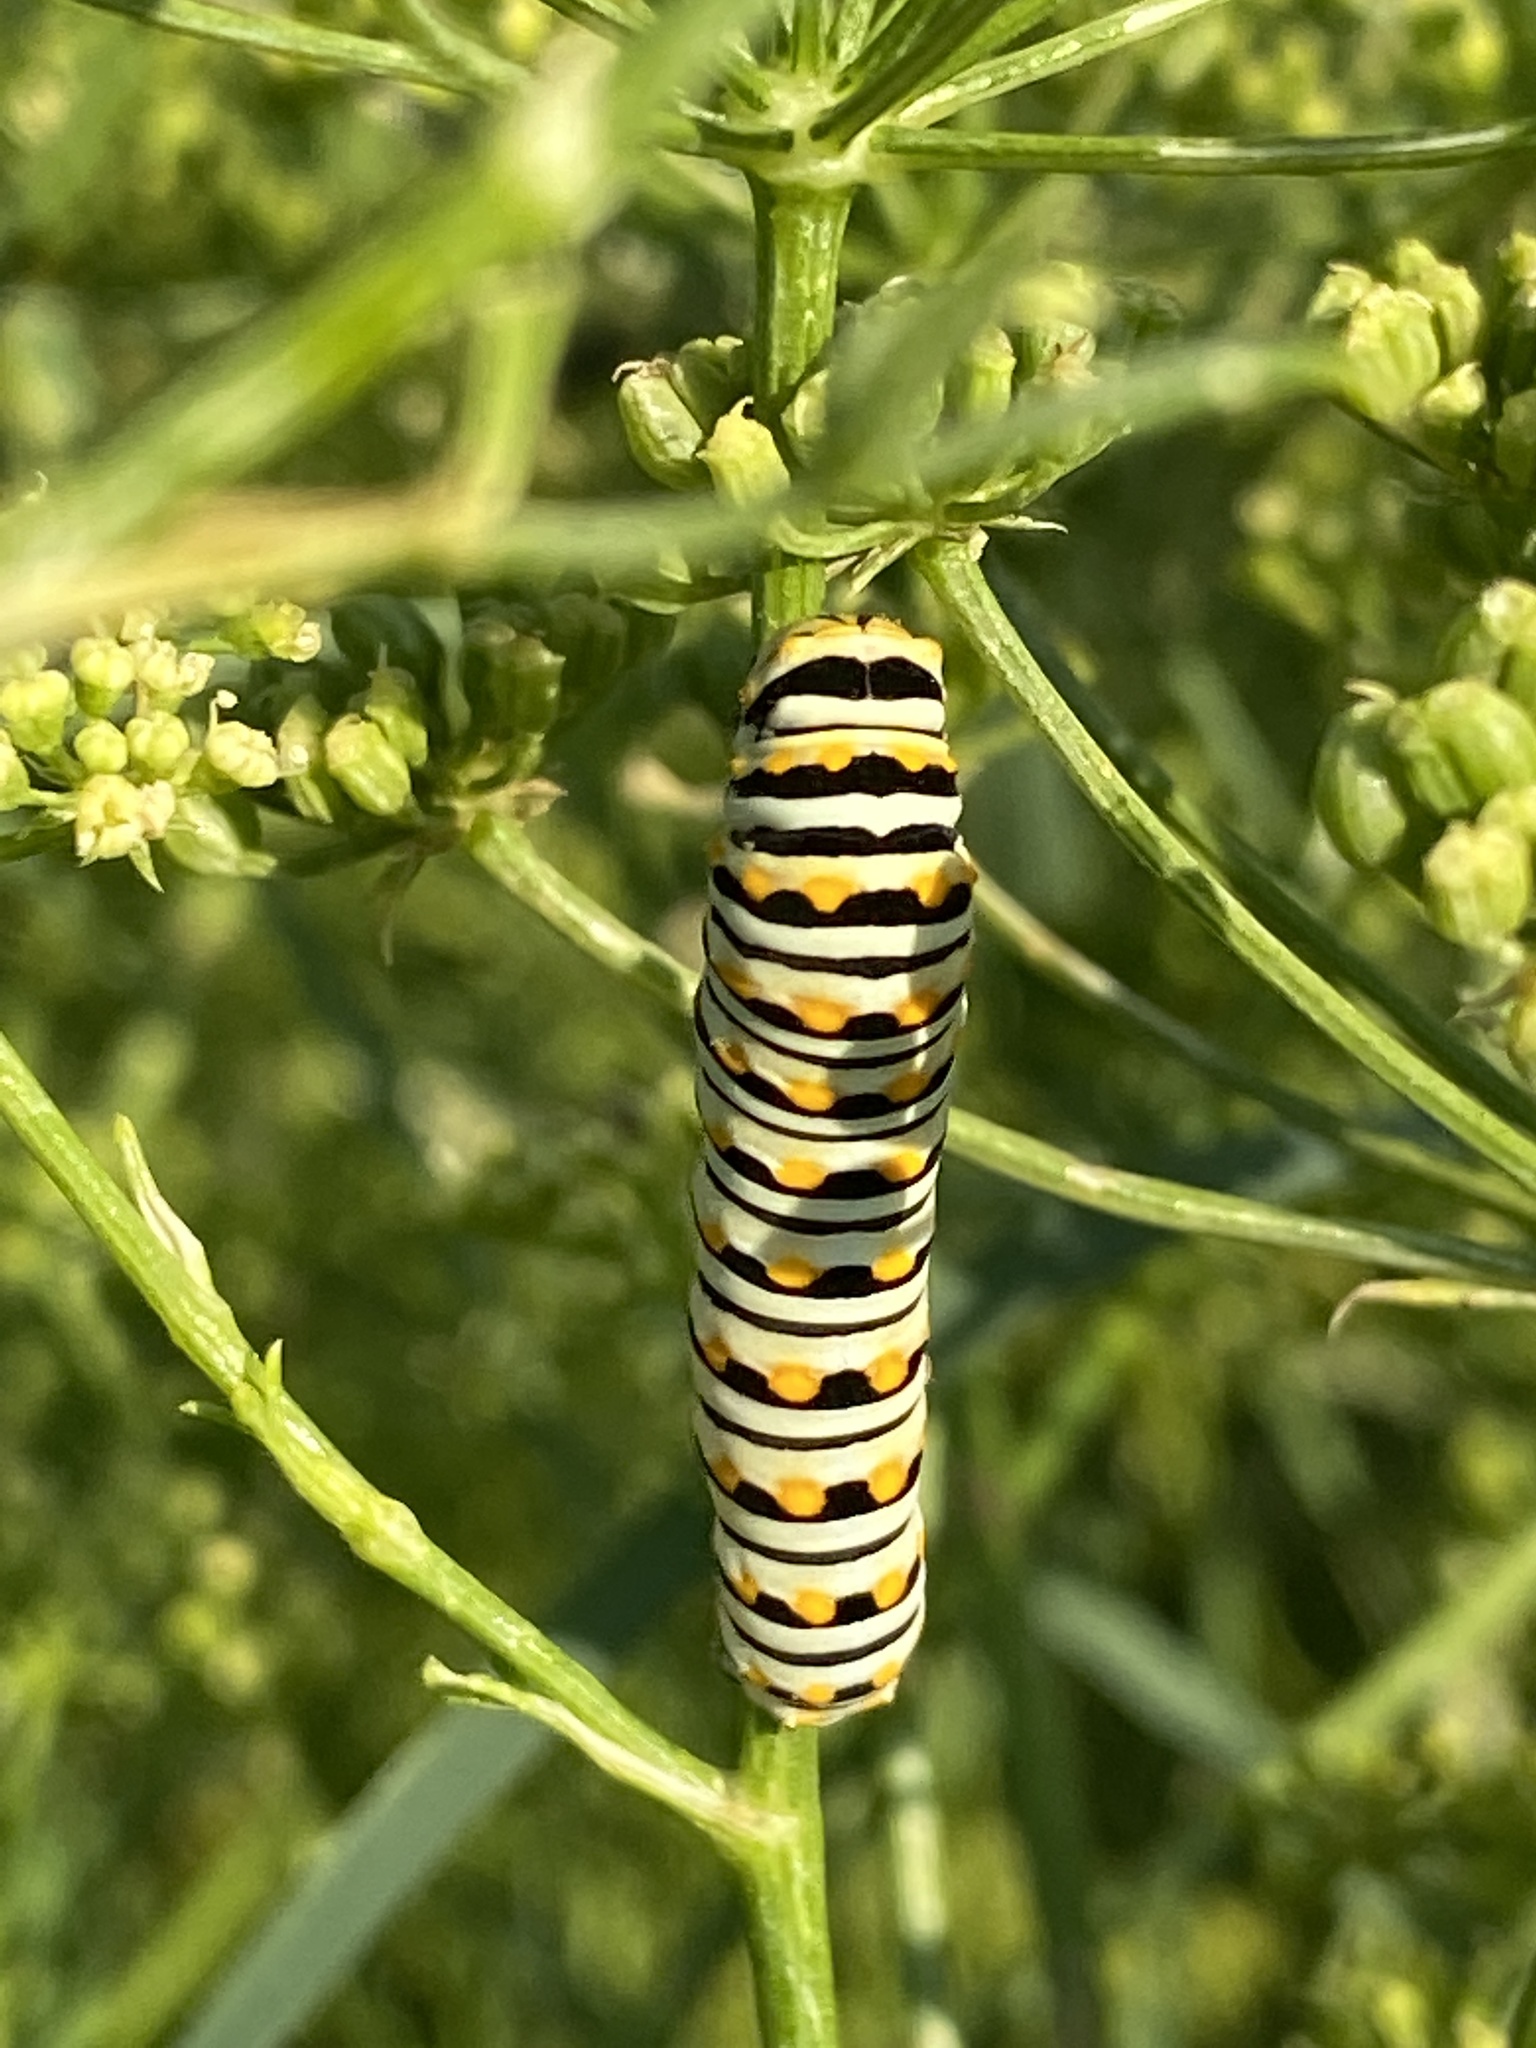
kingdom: Animalia
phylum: Arthropoda
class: Insecta
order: Lepidoptera
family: Papilionidae
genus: Papilio
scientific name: Papilio polyxenes
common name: Black swallowtail
